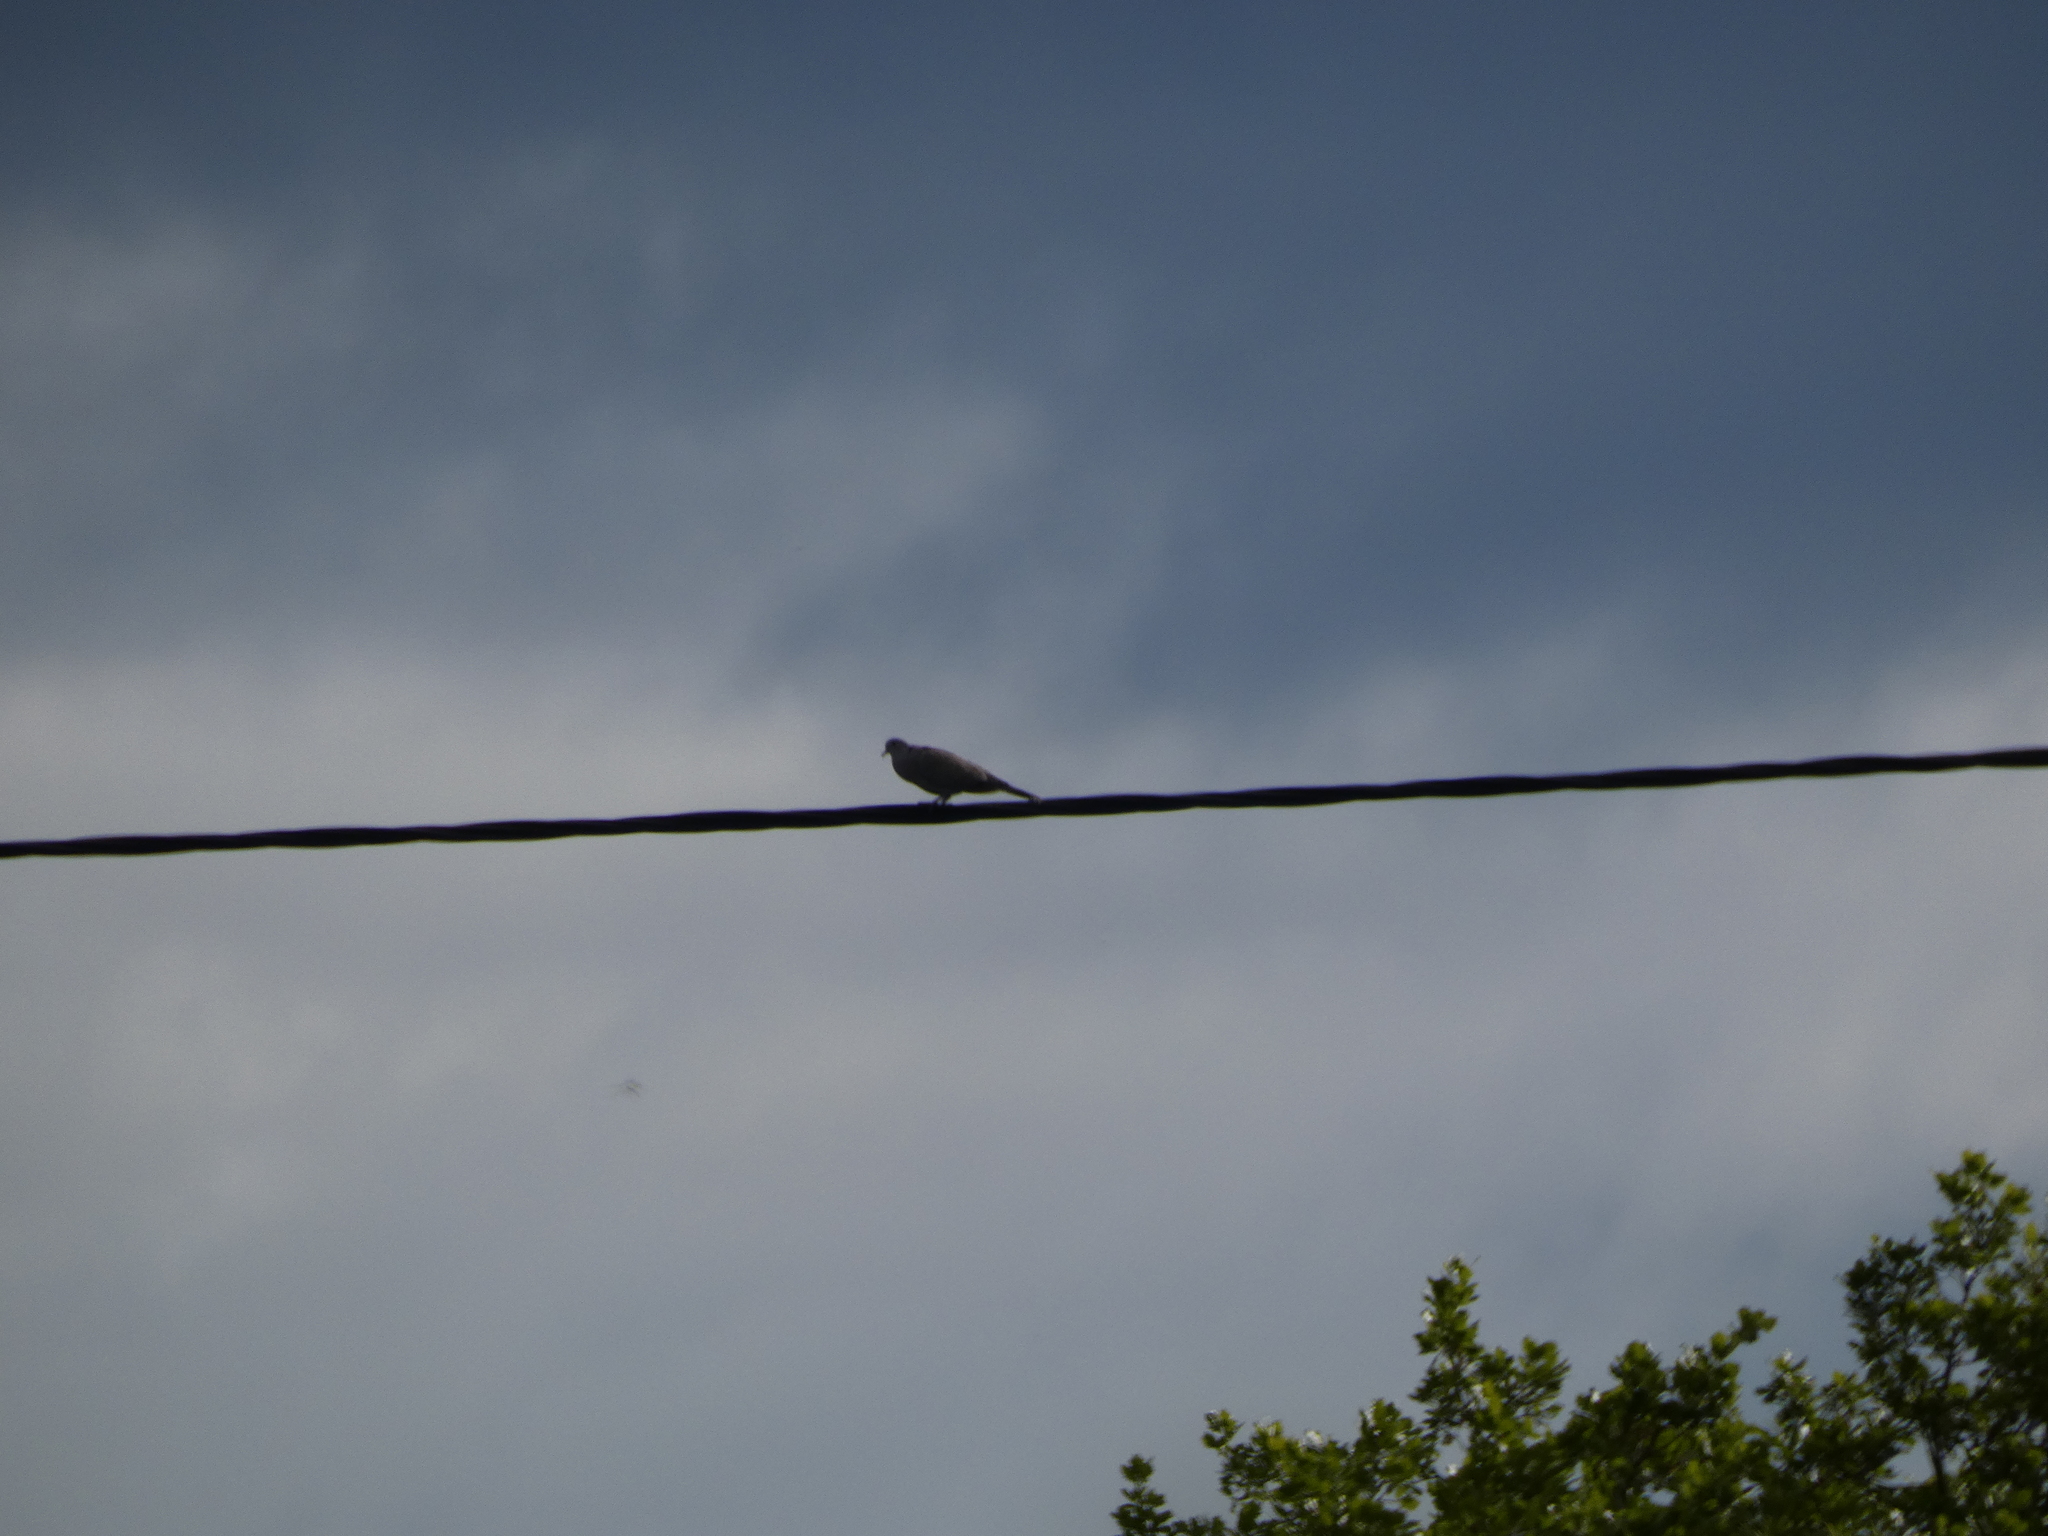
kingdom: Animalia
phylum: Chordata
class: Aves
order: Columbiformes
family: Columbidae
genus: Streptopelia
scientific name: Streptopelia decaocto
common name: Eurasian collared dove
